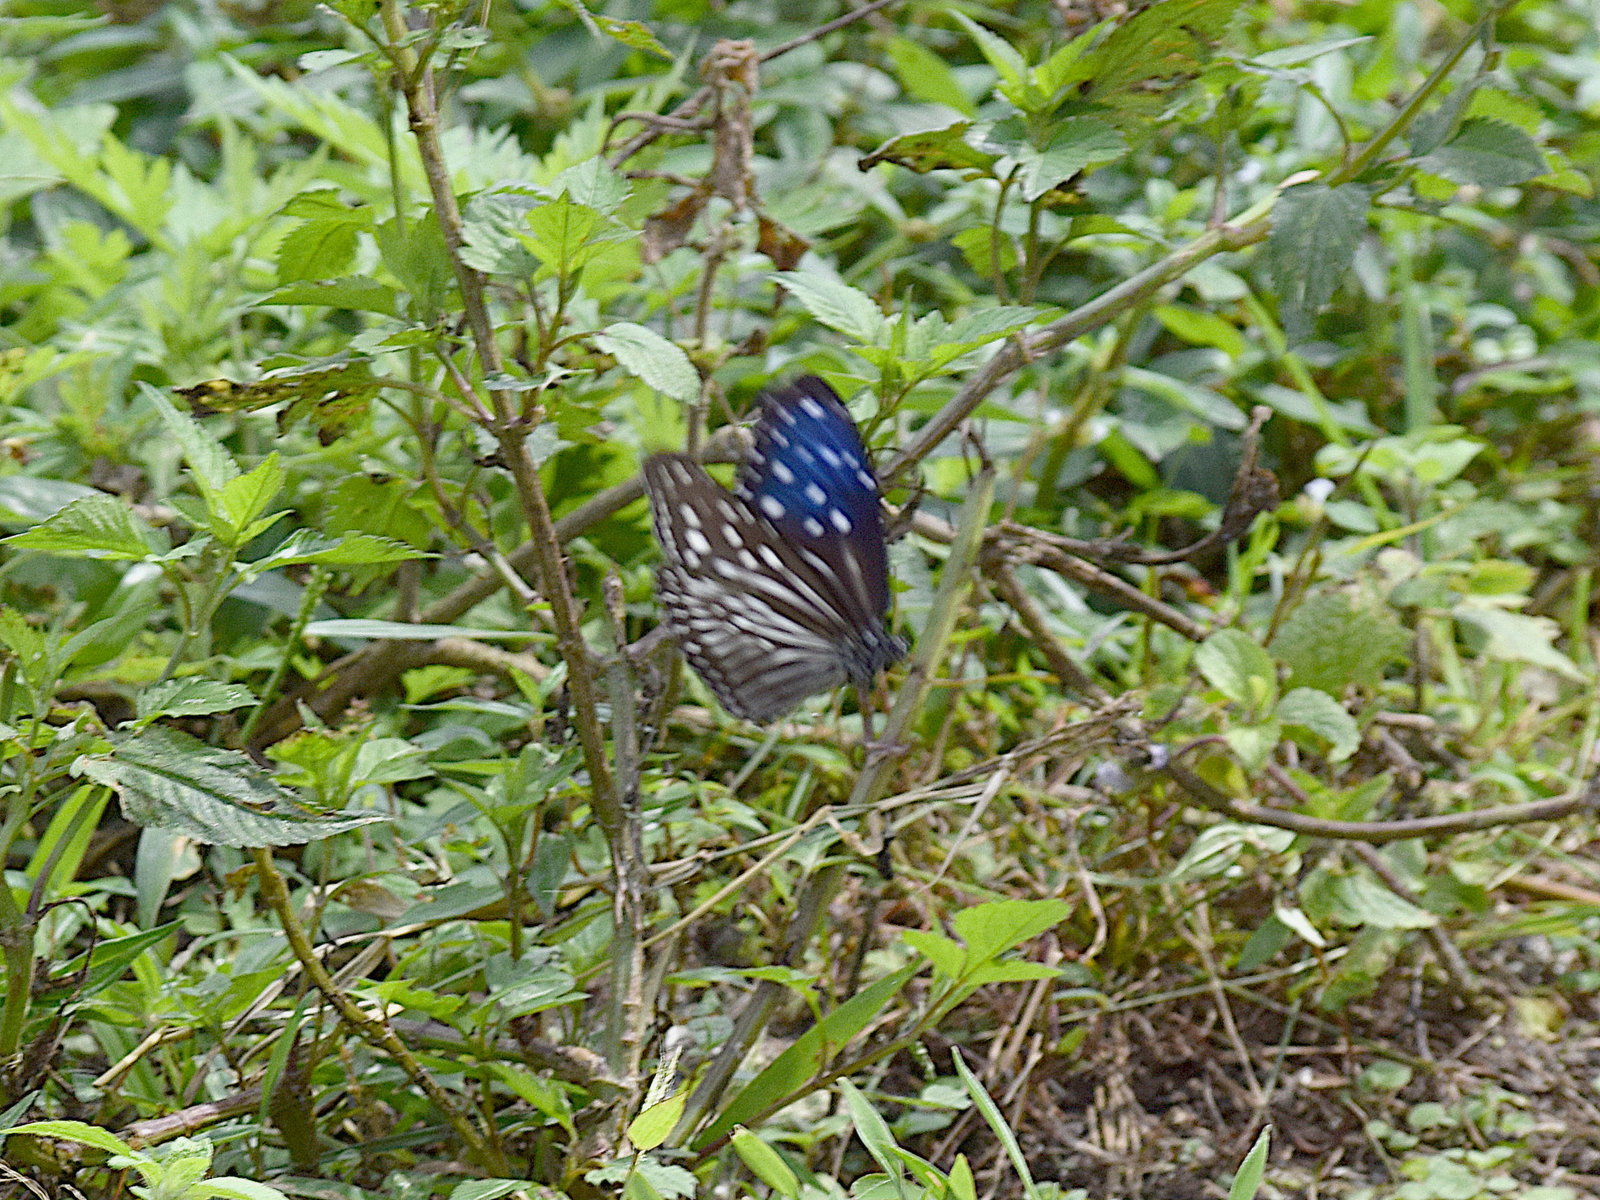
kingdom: Animalia
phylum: Arthropoda
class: Insecta
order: Lepidoptera
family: Nymphalidae
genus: Euploea
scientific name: Euploea mulciber
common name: Striped blue crow butterfly
